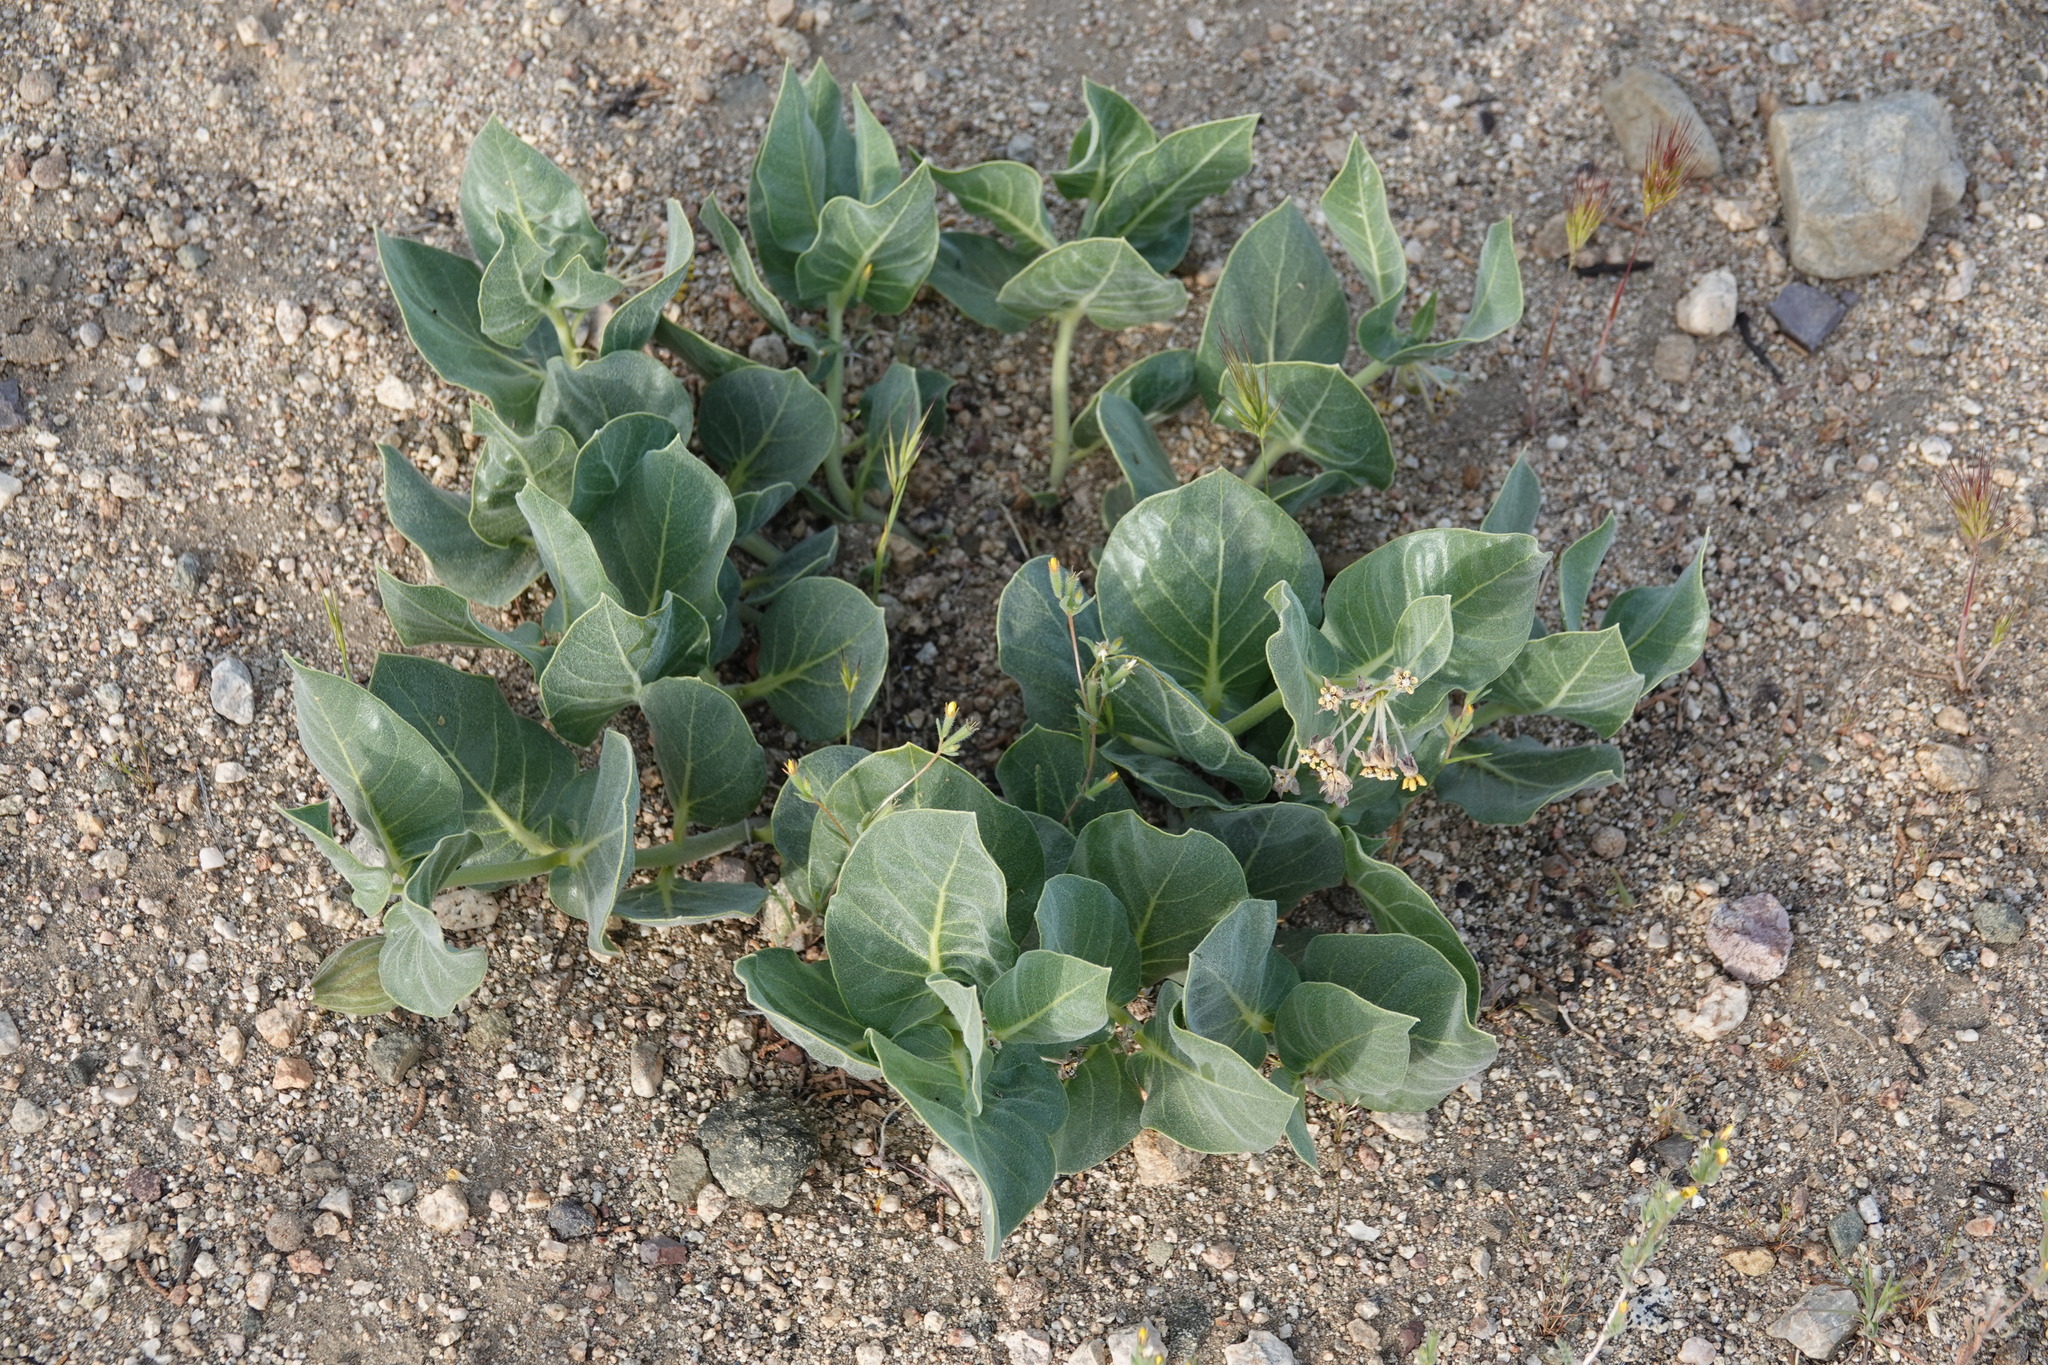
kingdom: Plantae
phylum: Tracheophyta
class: Magnoliopsida
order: Gentianales
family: Apocynaceae
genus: Asclepias
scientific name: Asclepias vestita
